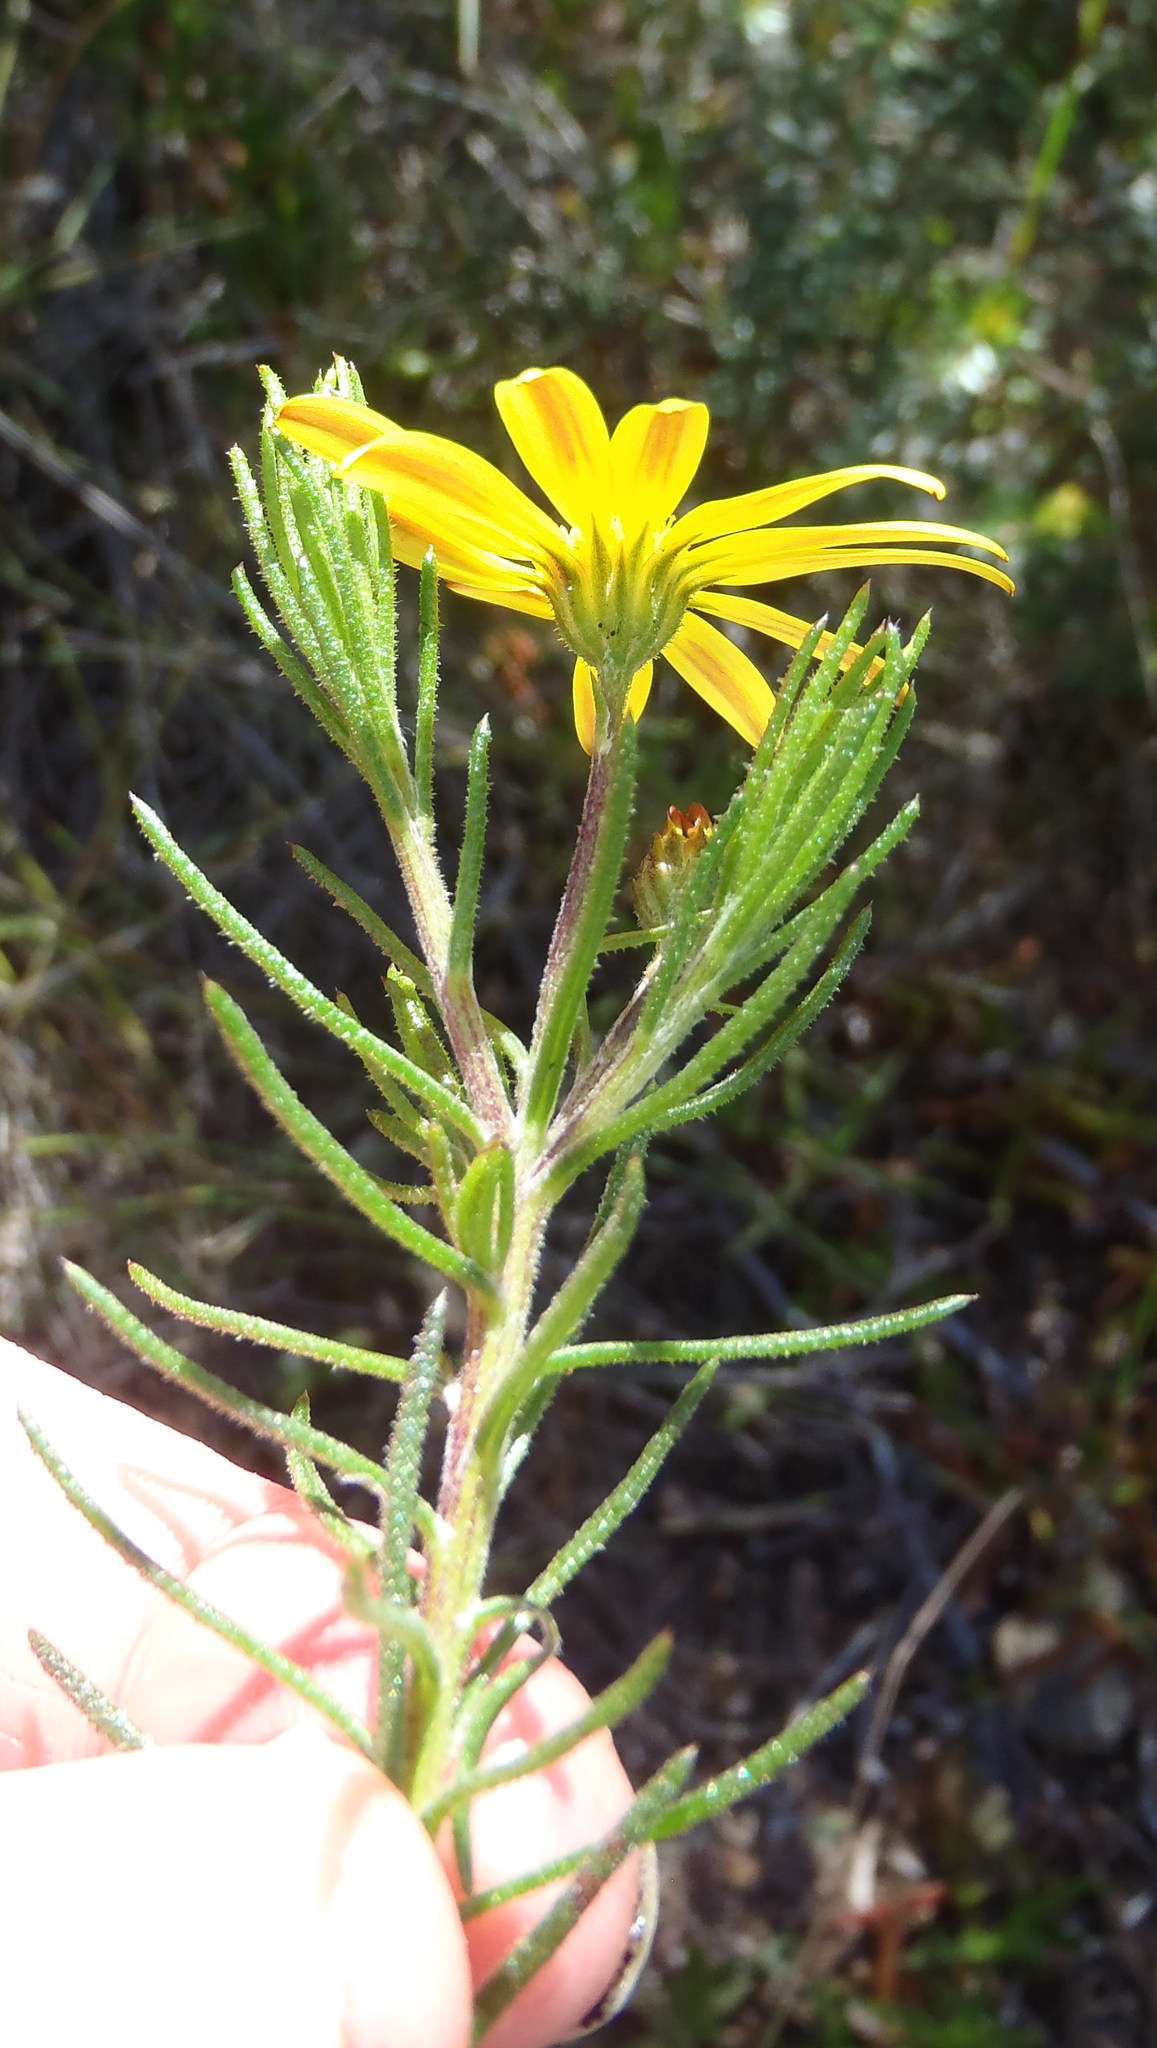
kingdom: Plantae
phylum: Tracheophyta
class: Magnoliopsida
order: Asterales
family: Asteraceae
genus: Gibbaria
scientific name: Gibbaria scabra
